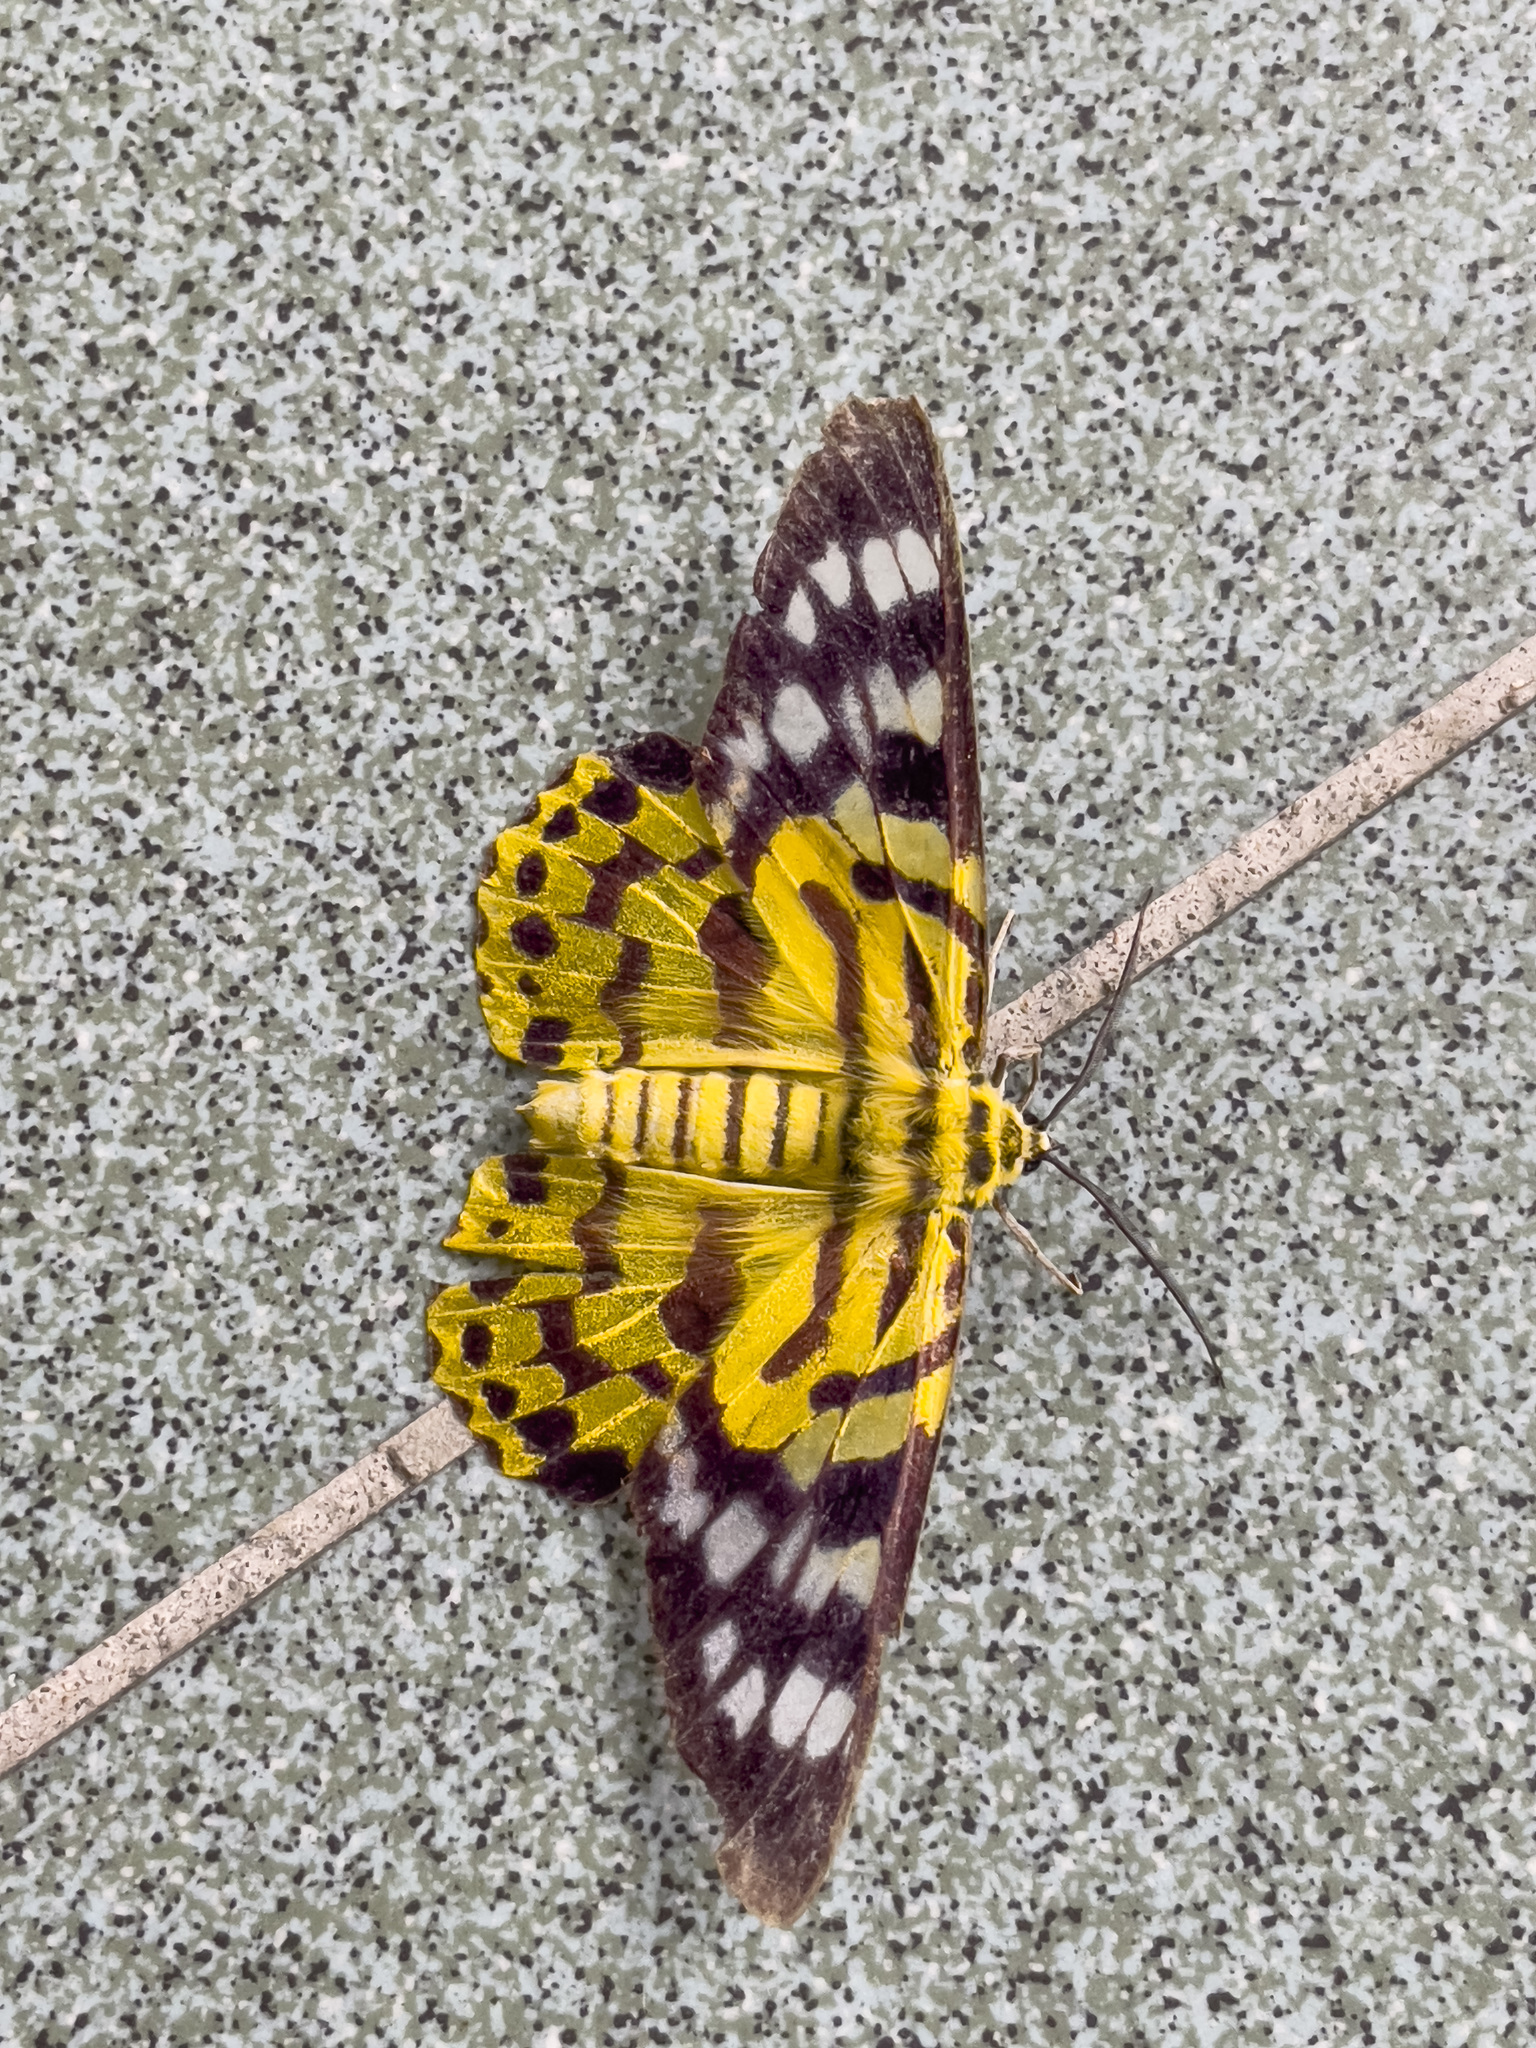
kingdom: Animalia
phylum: Arthropoda
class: Insecta
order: Lepidoptera
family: Geometridae
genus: Dysphania
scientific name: Dysphania militaris
